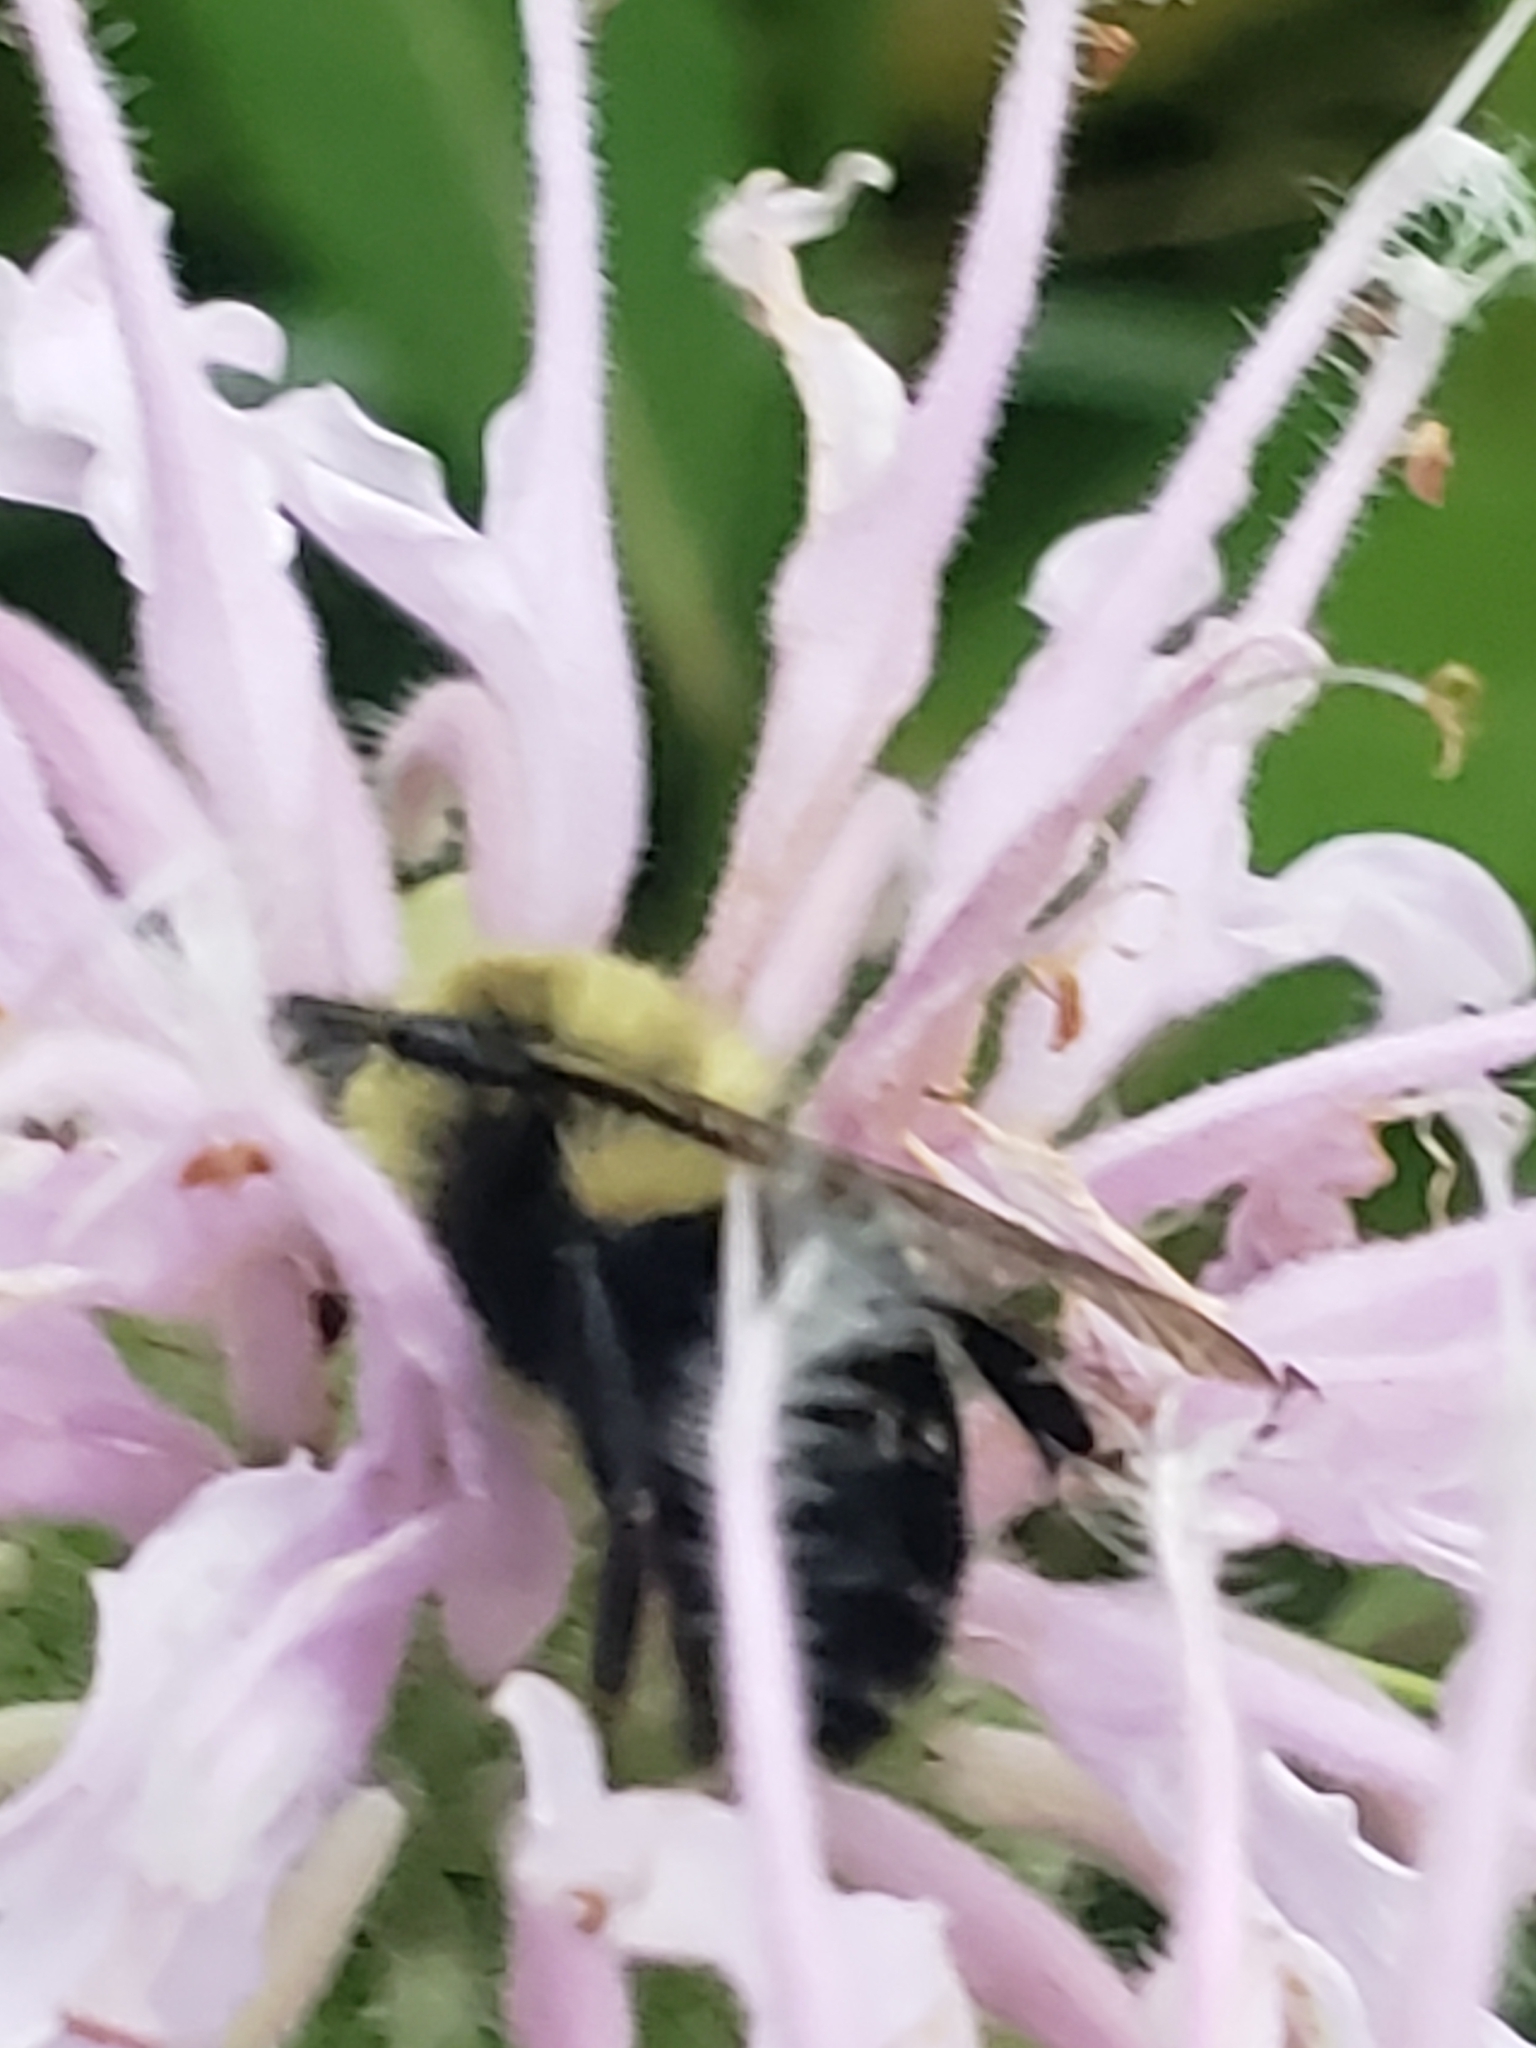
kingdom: Animalia
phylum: Arthropoda
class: Insecta
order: Hymenoptera
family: Apidae
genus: Bombus
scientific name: Bombus impatiens
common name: Common eastern bumble bee
